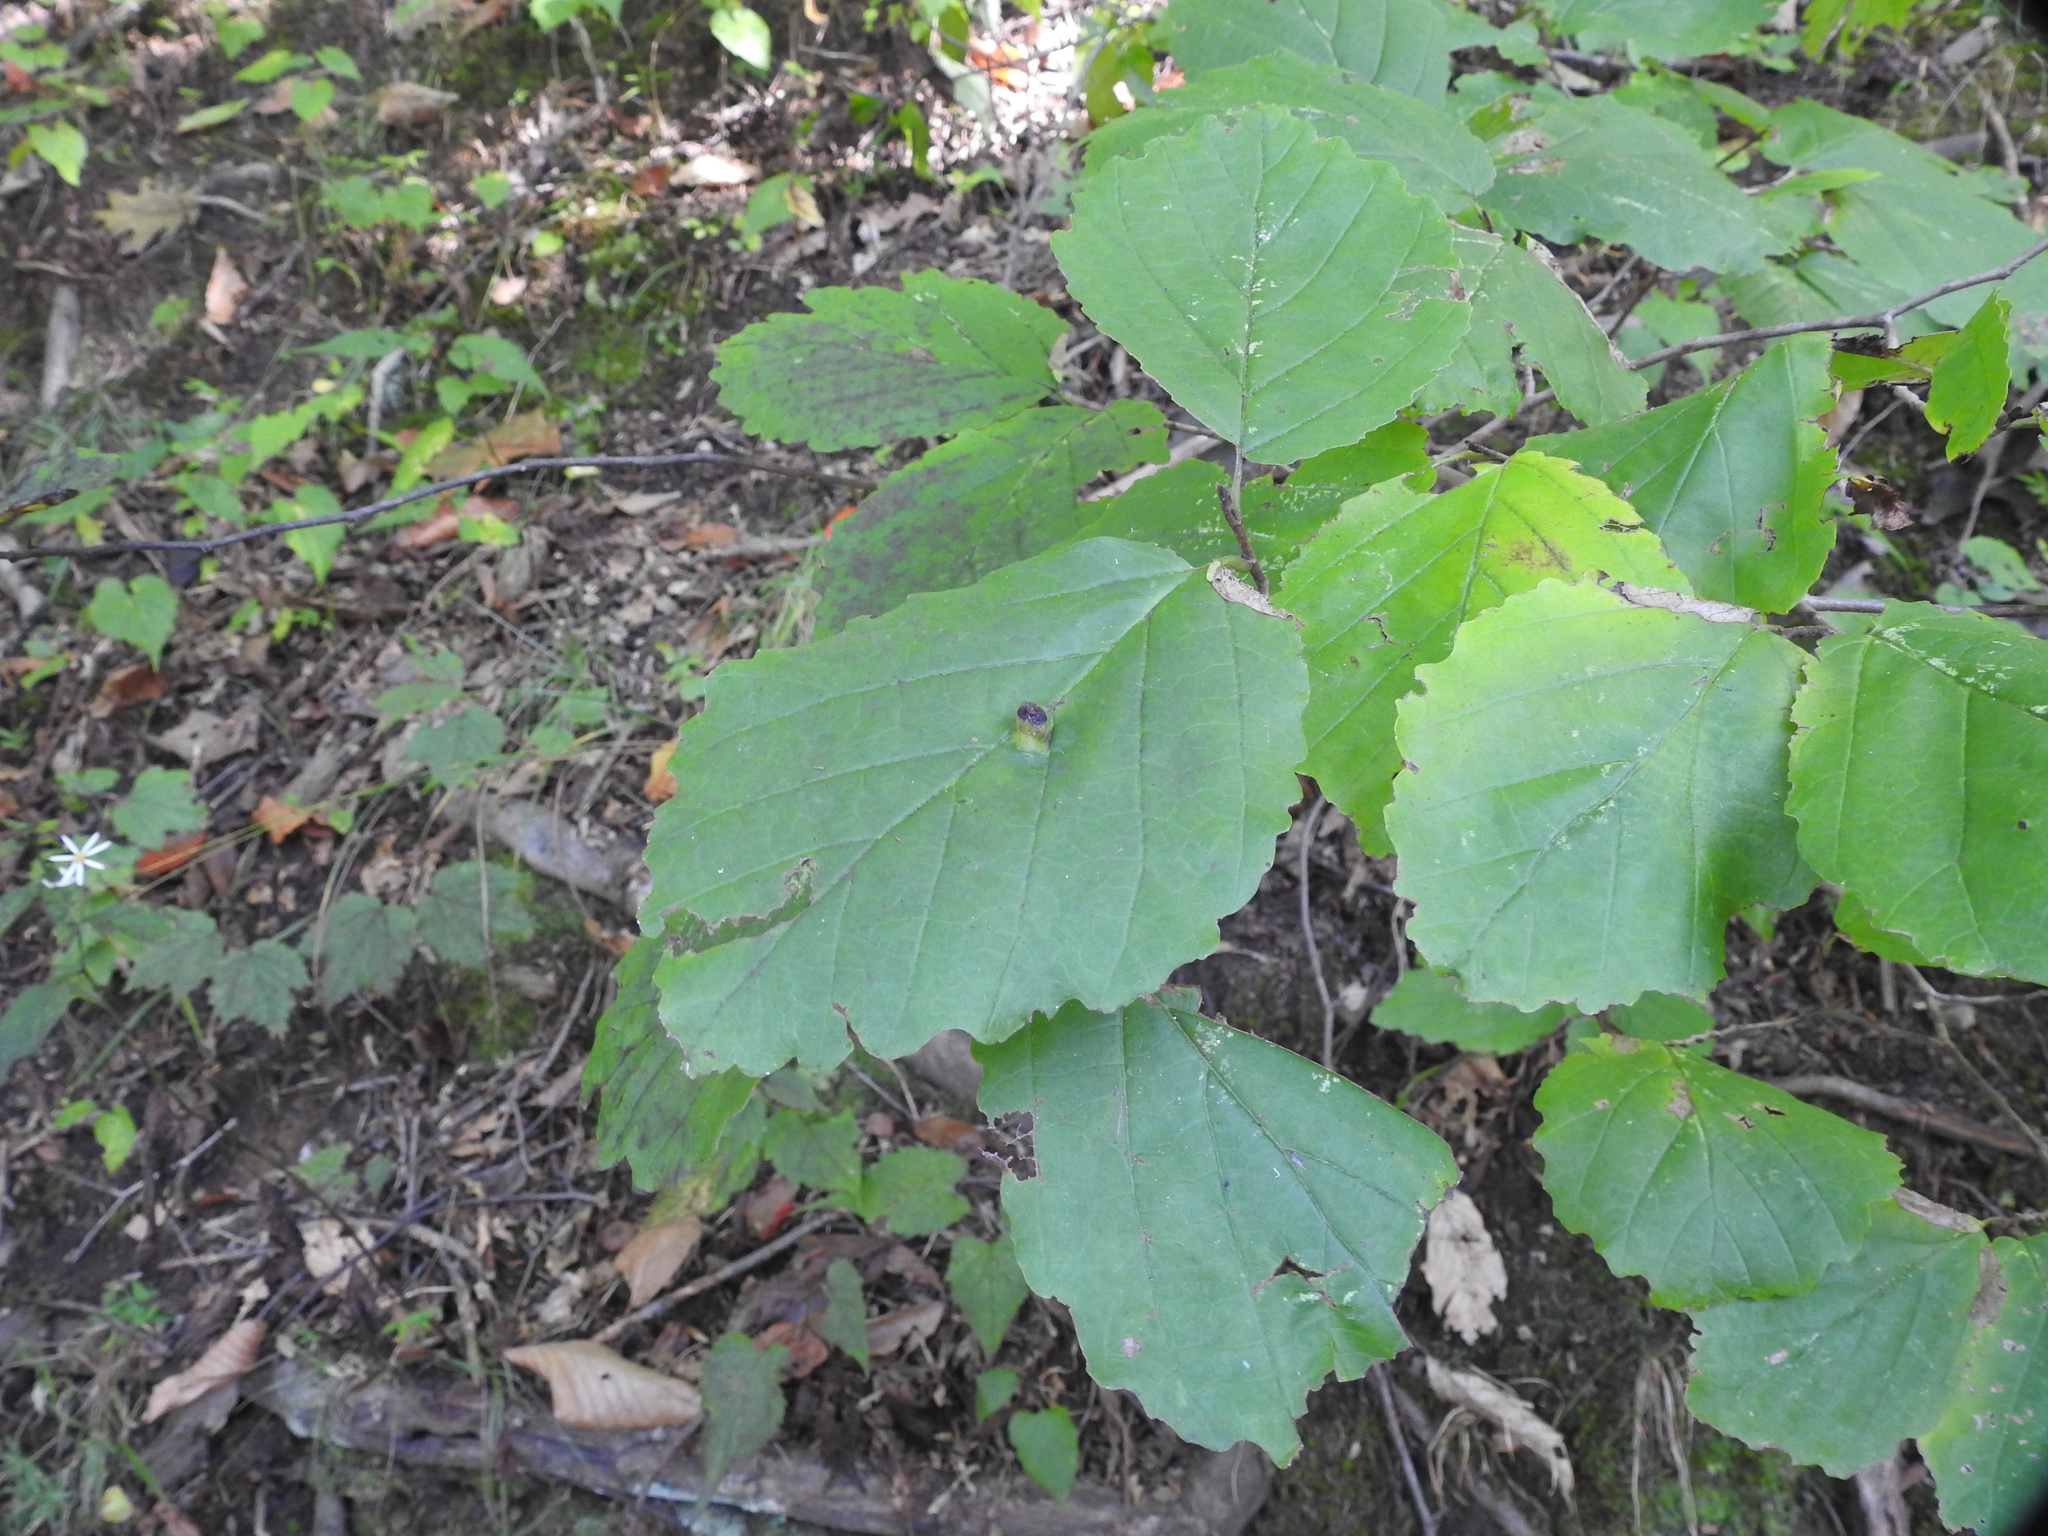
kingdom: Plantae
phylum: Tracheophyta
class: Magnoliopsida
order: Saxifragales
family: Hamamelidaceae
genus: Hamamelis
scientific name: Hamamelis virginiana
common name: Witch-hazel
